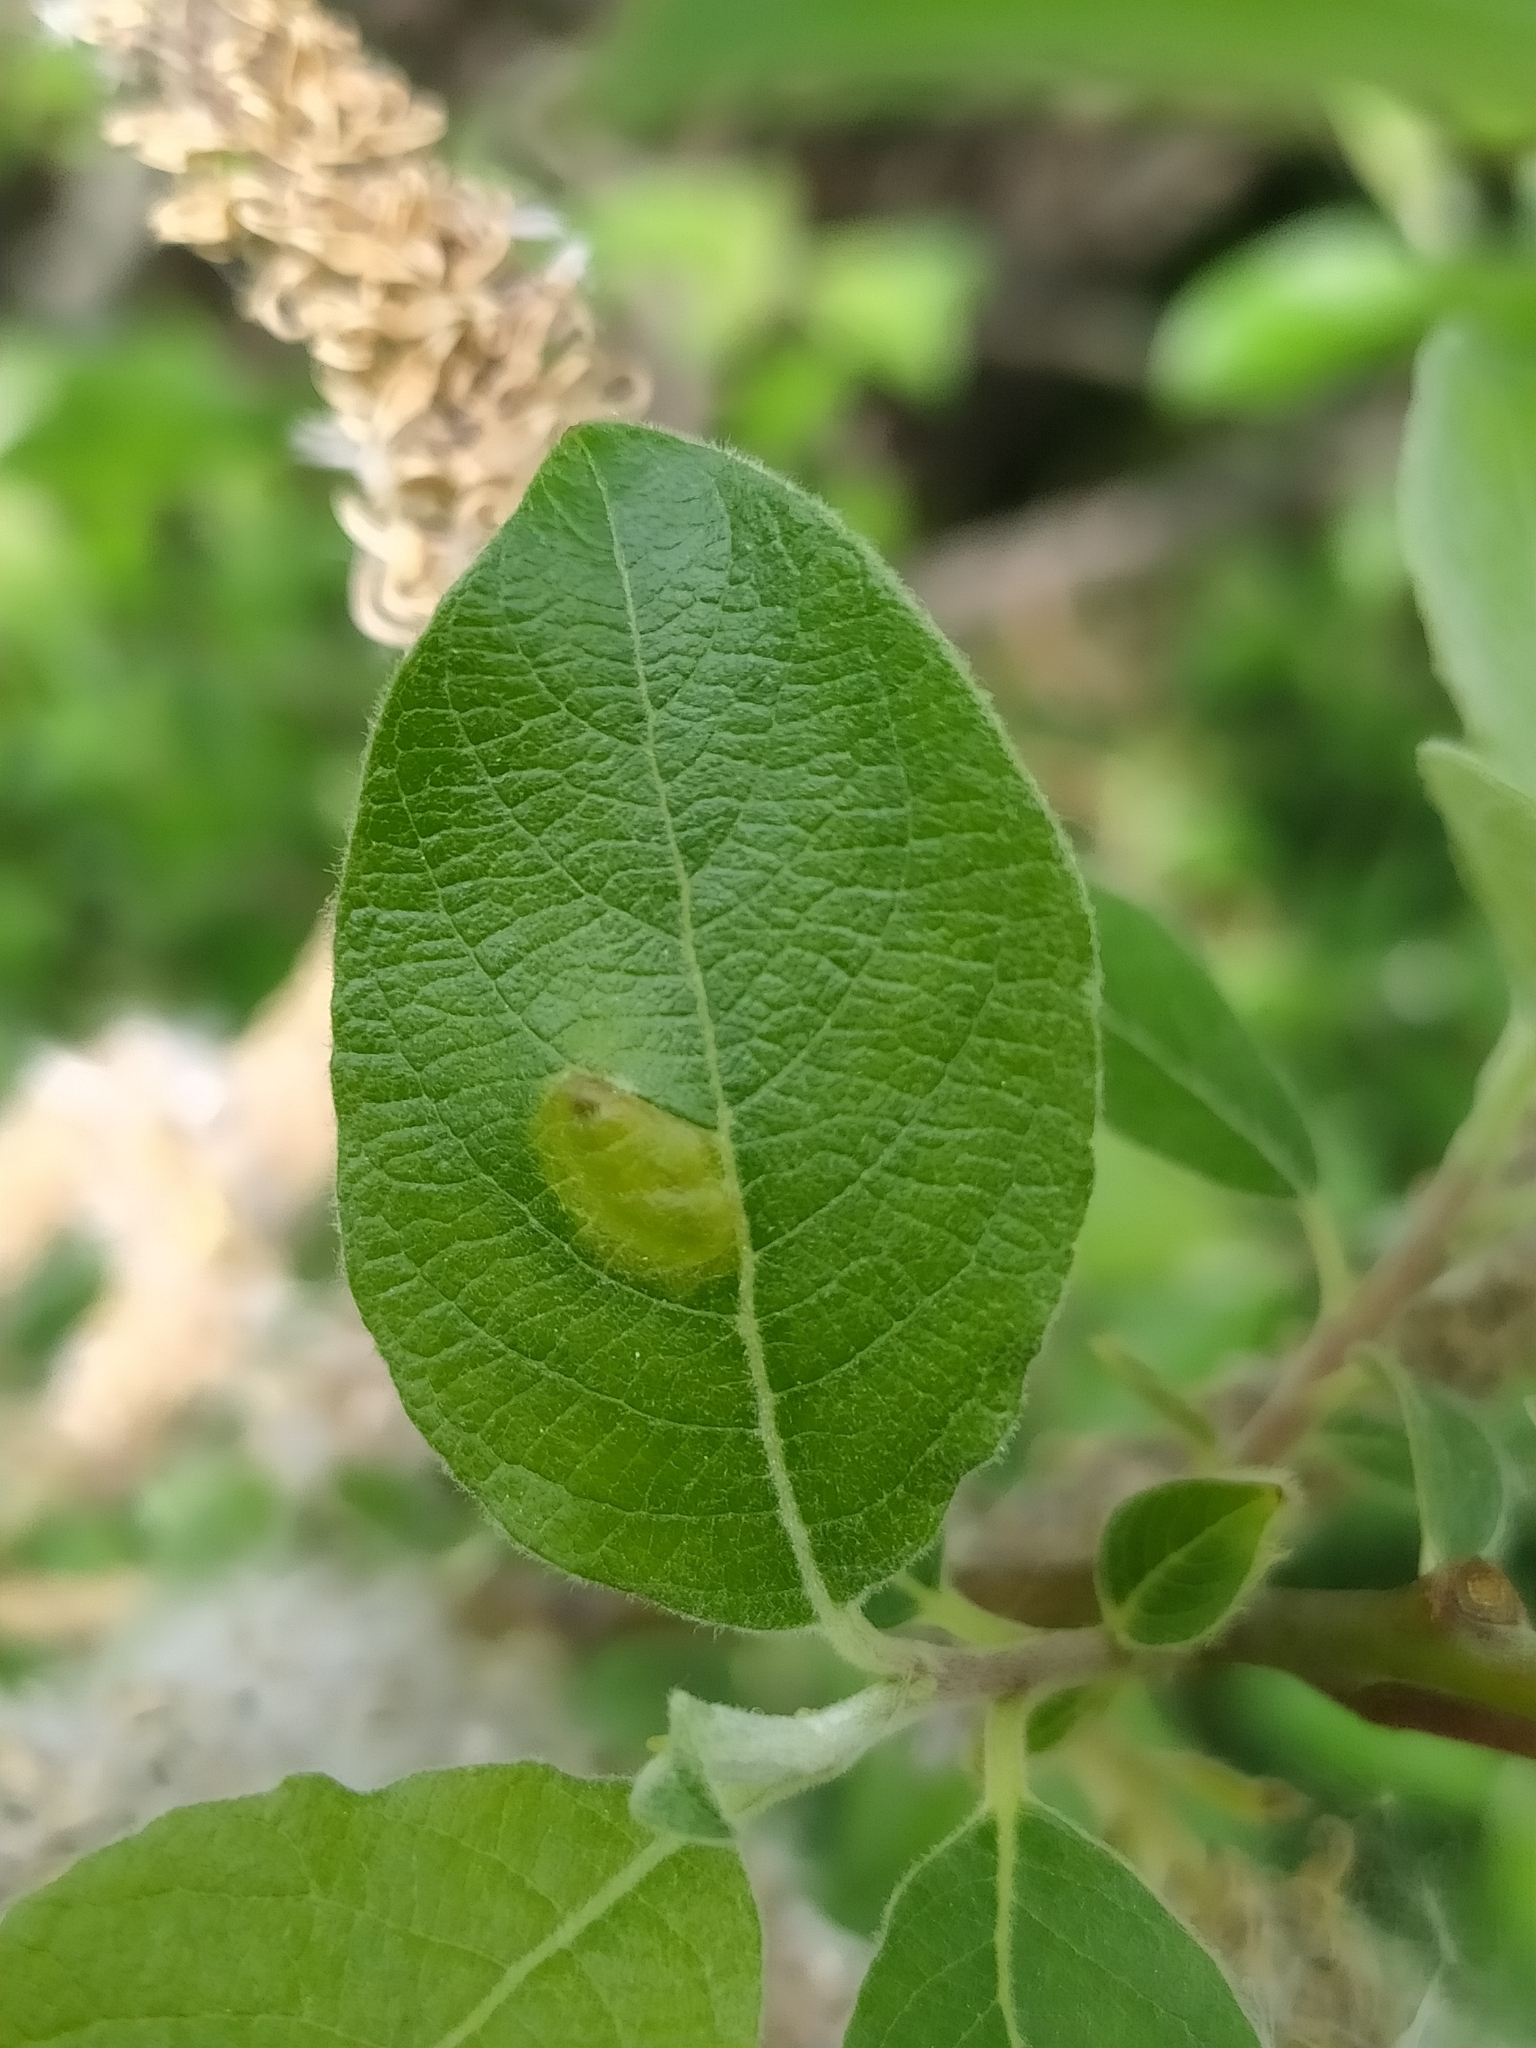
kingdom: Animalia
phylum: Arthropoda
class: Insecta
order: Hymenoptera
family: Tenthredinidae
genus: Pontania
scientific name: Pontania bridgmanii
